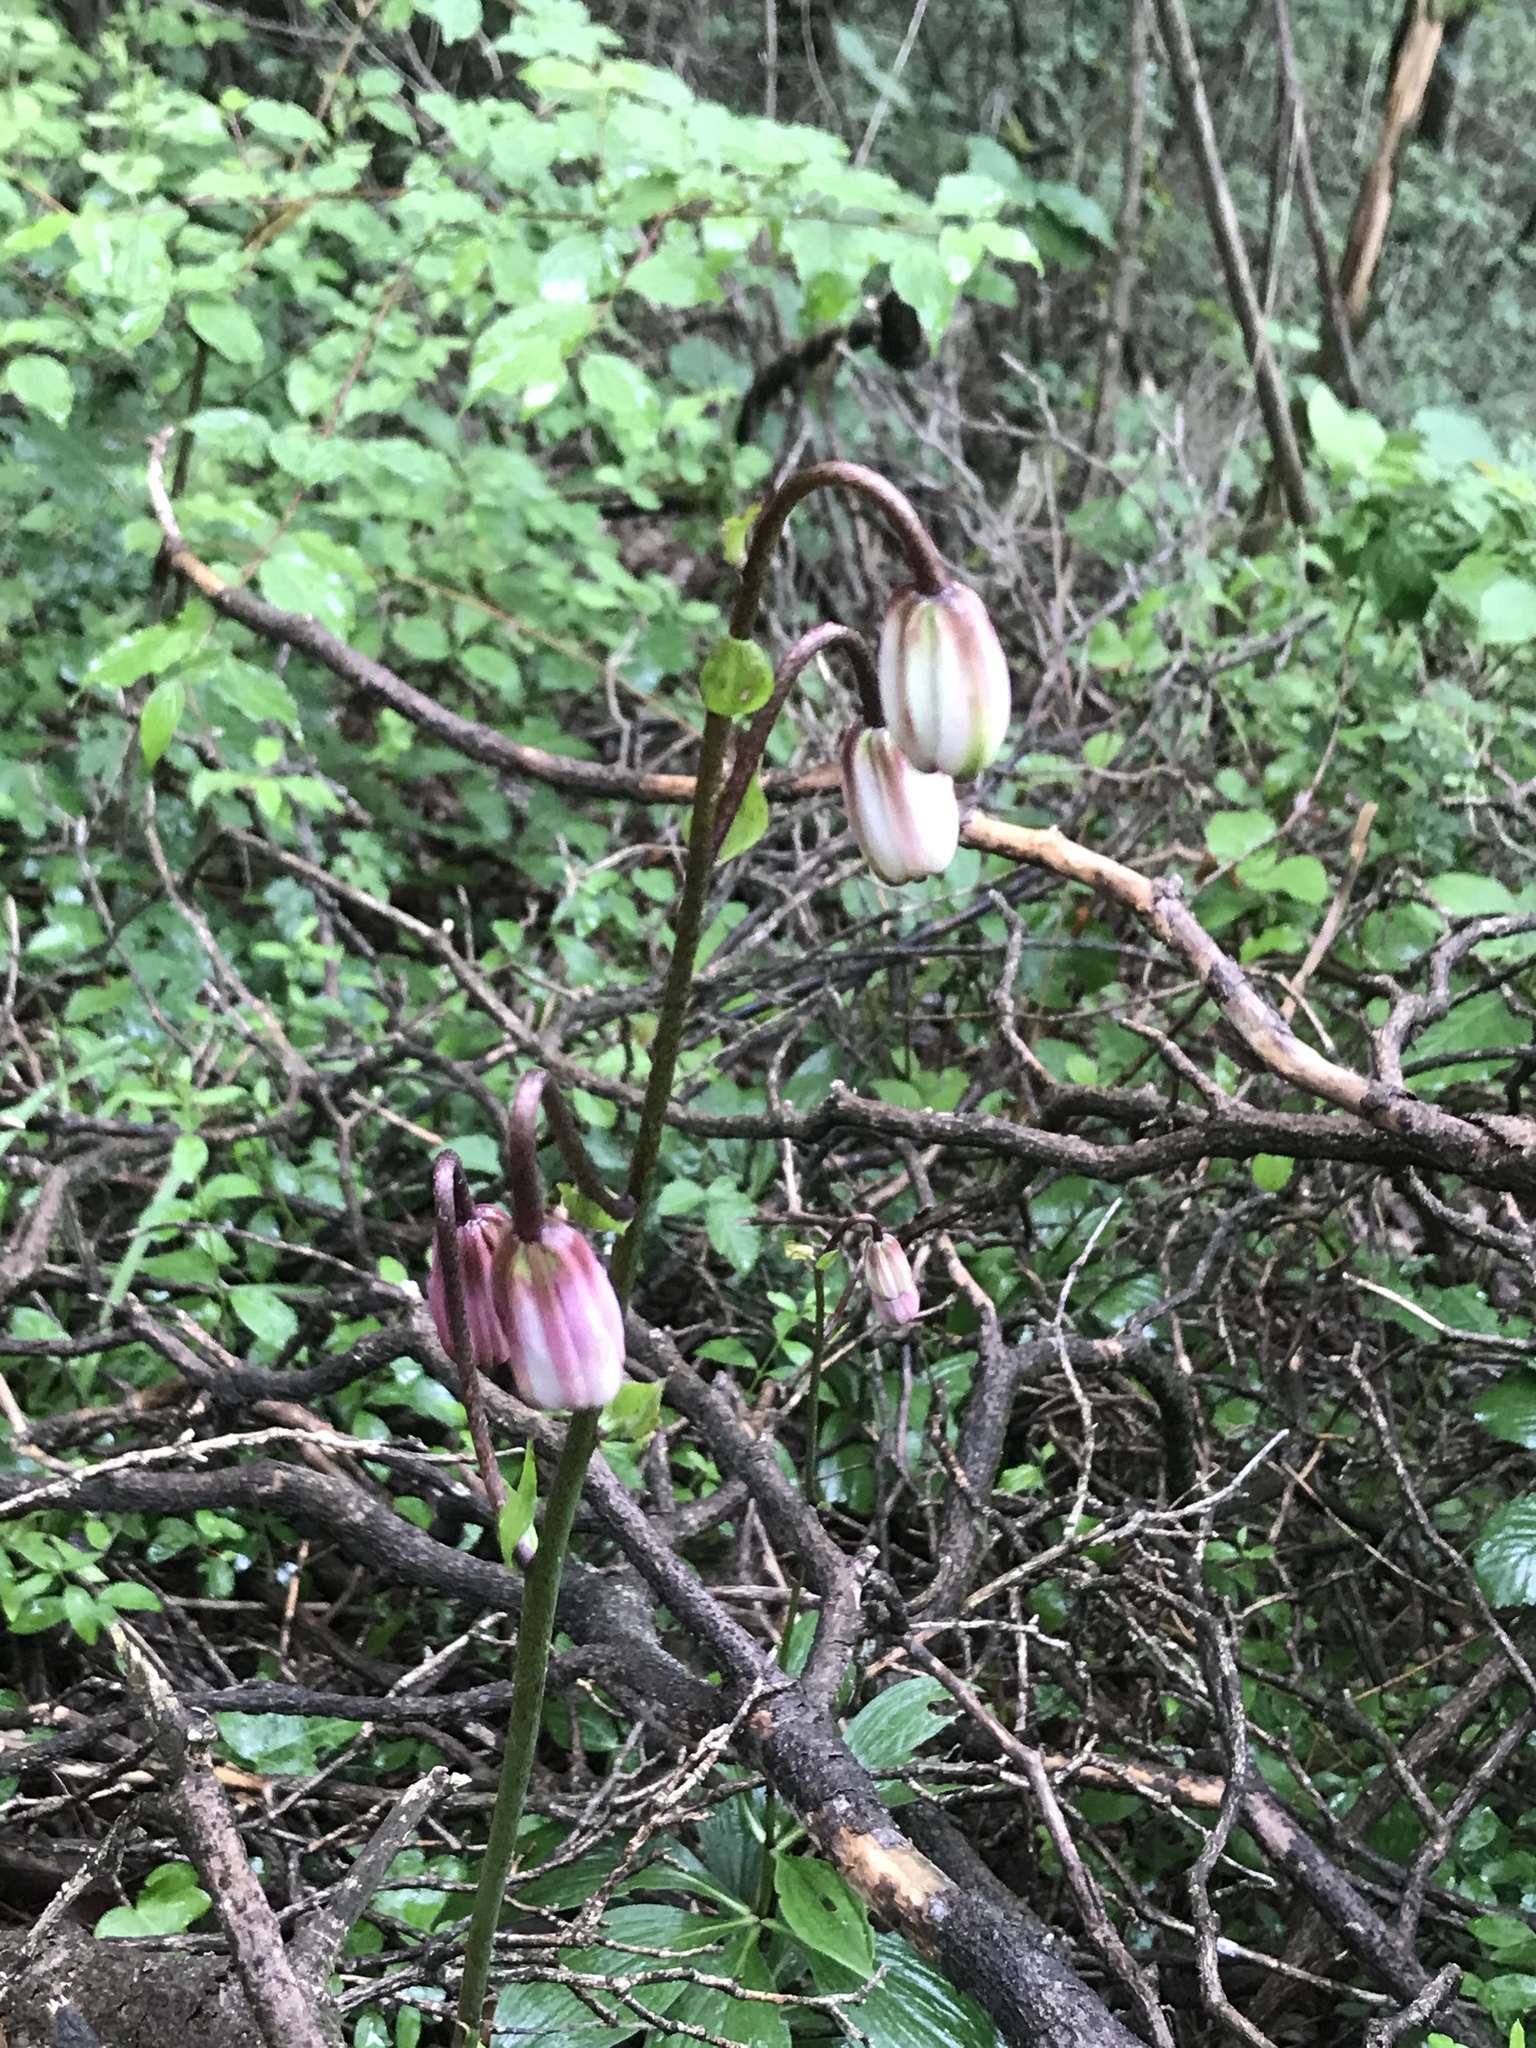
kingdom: Plantae
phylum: Tracheophyta
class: Liliopsida
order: Liliales
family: Liliaceae
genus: Lilium
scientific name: Lilium martagon
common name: Martagon lily
